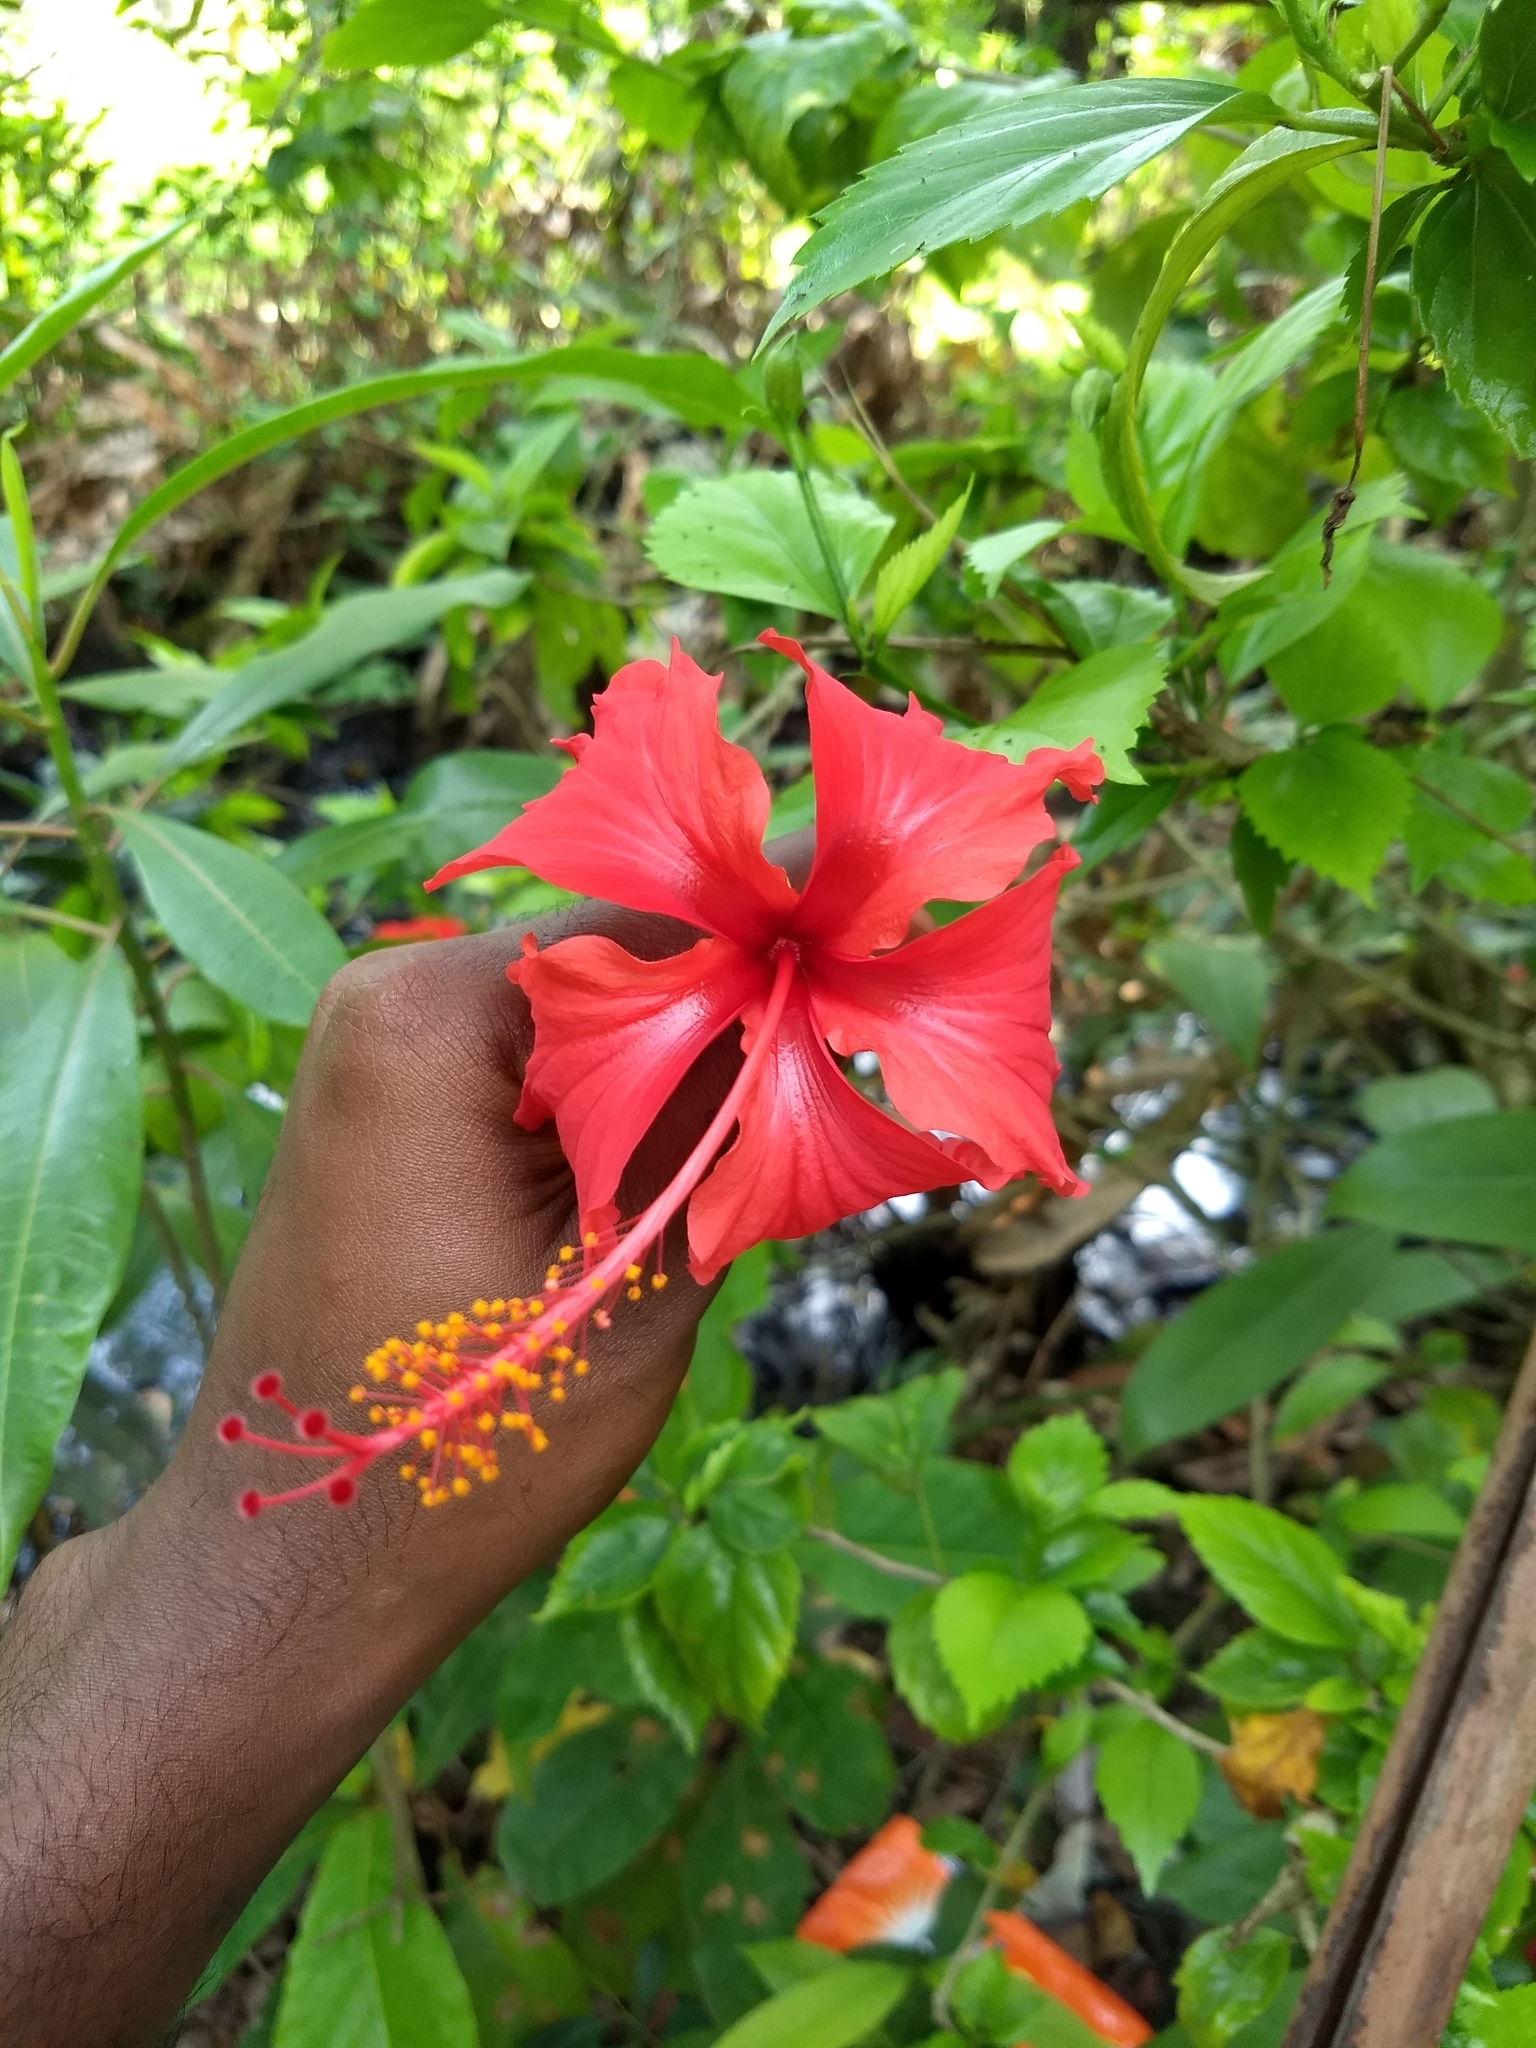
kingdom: Plantae
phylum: Tracheophyta
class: Magnoliopsida
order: Malvales
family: Malvaceae
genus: Hibiscus
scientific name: Hibiscus archeri
